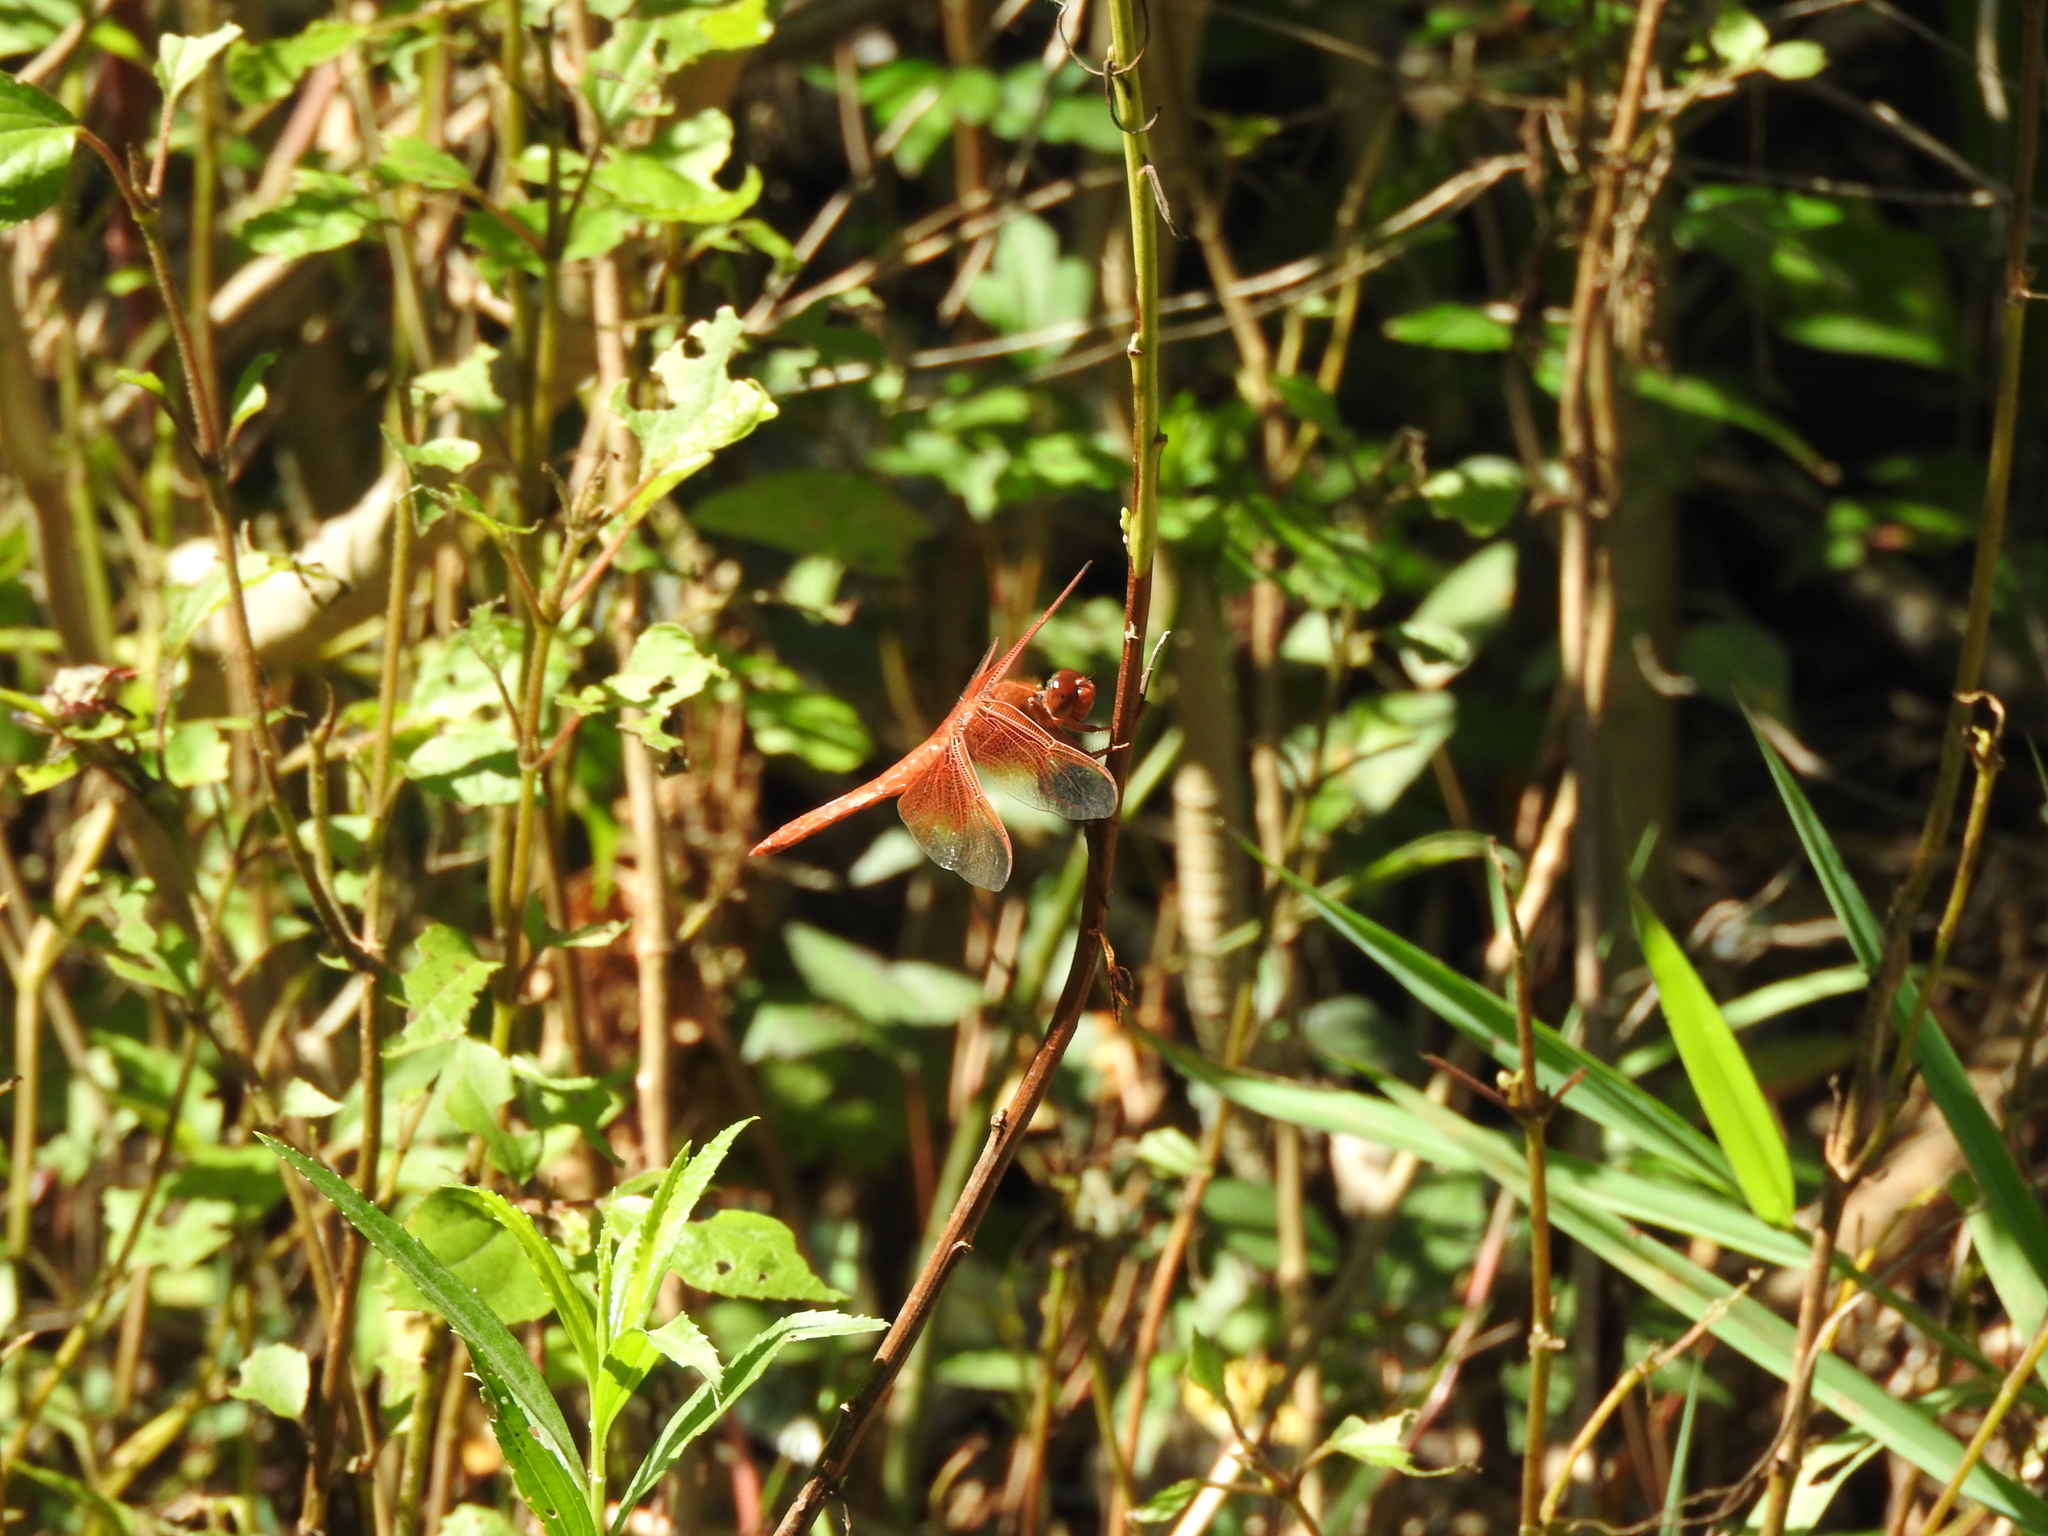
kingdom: Animalia
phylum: Arthropoda
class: Insecta
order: Odonata
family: Libellulidae
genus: Libellula
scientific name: Libellula saturata
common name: Flame skimmer
